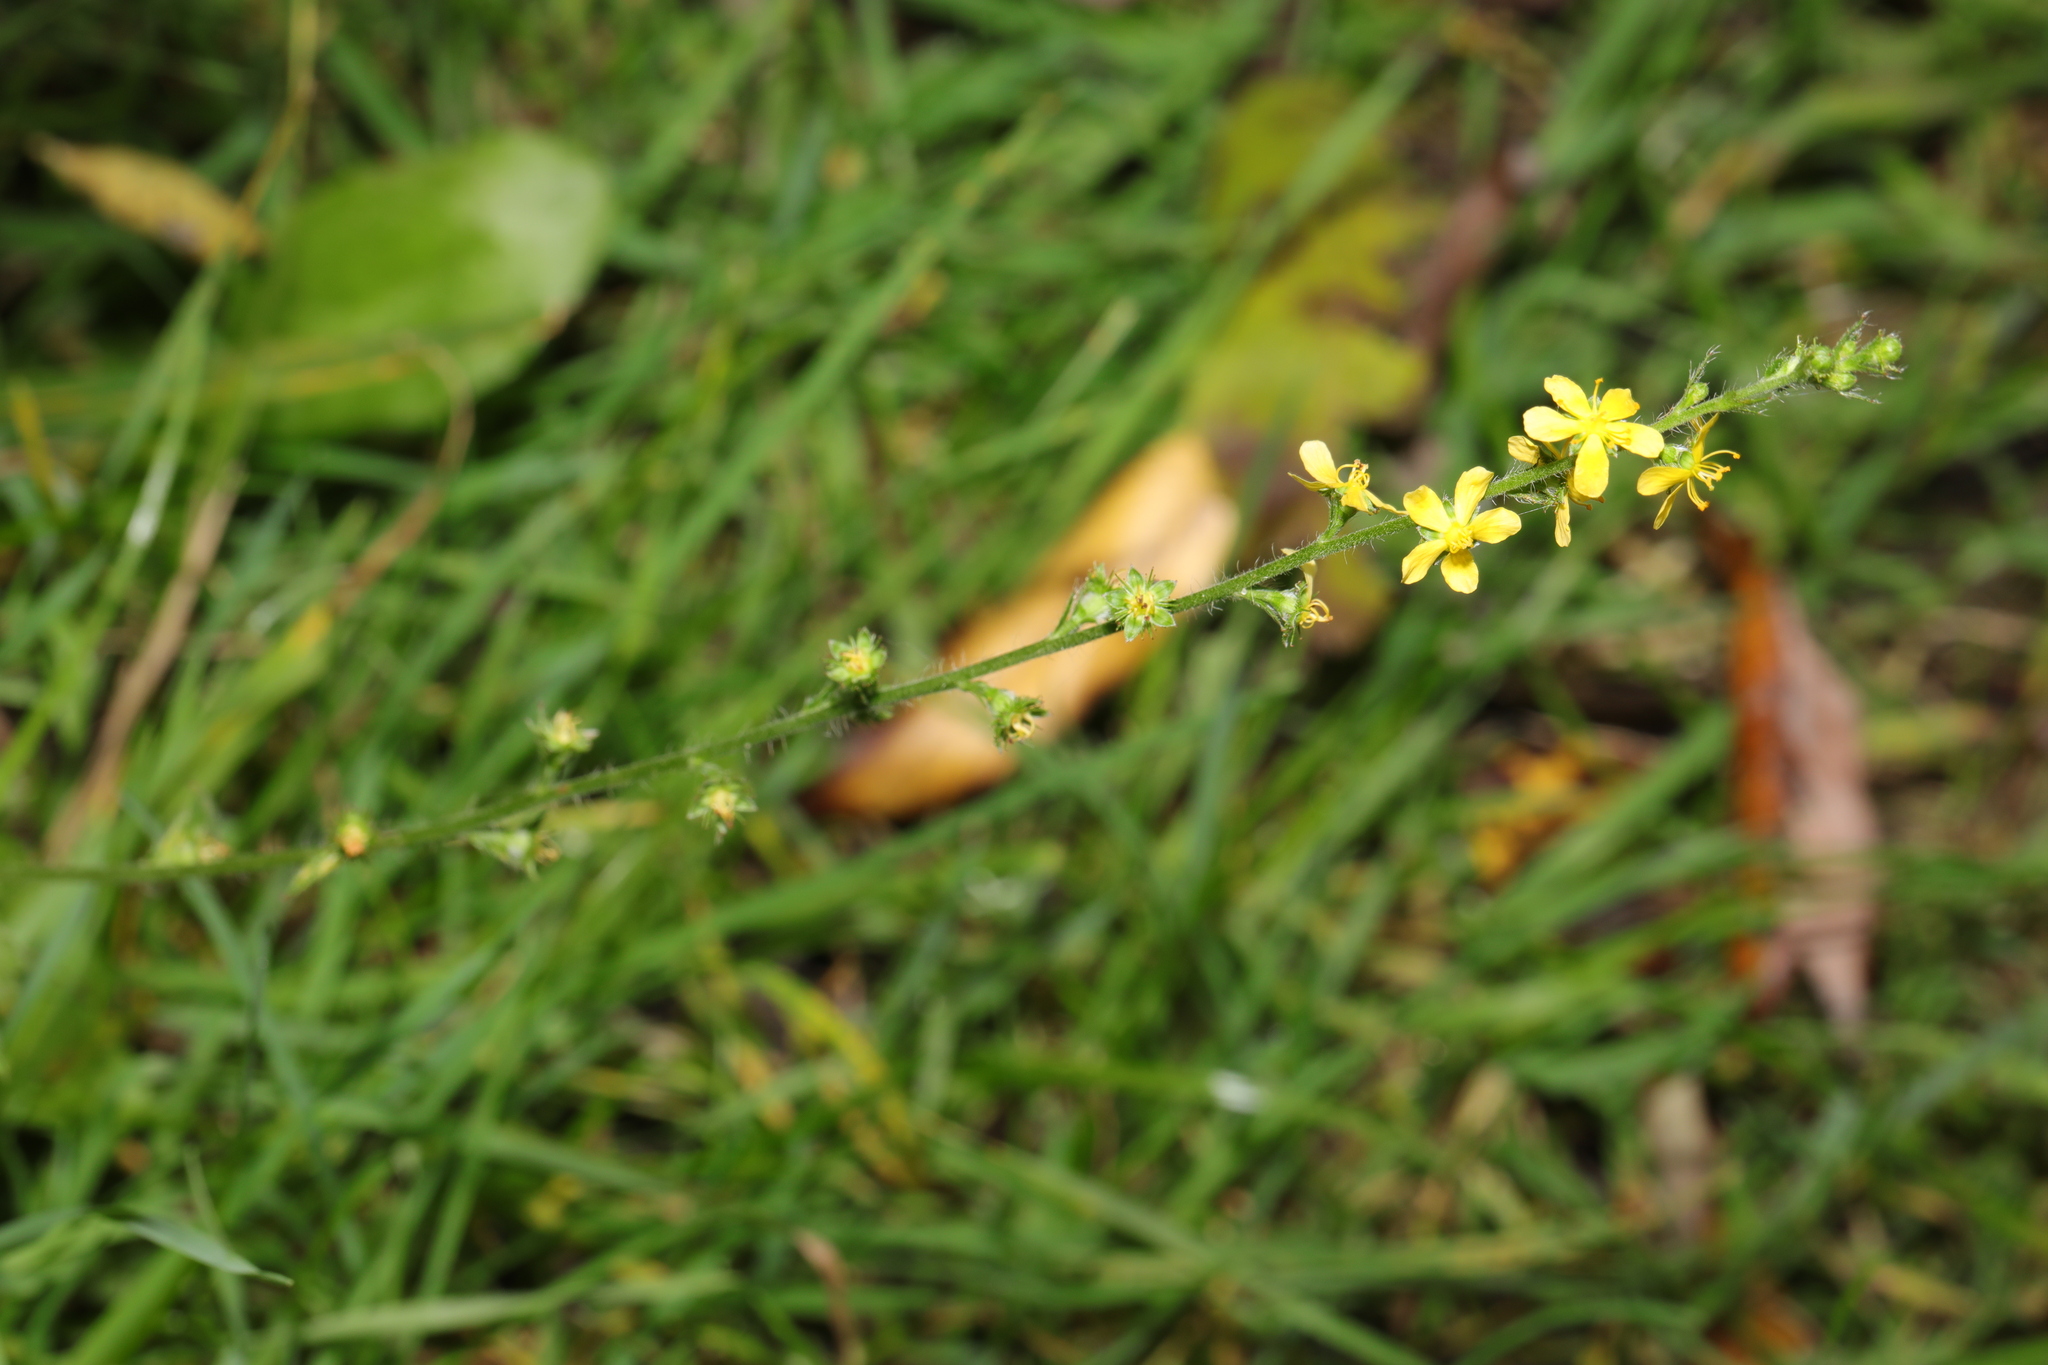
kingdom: Plantae
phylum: Tracheophyta
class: Magnoliopsida
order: Rosales
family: Rosaceae
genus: Agrimonia
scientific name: Agrimonia eupatoria
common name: Agrimony
